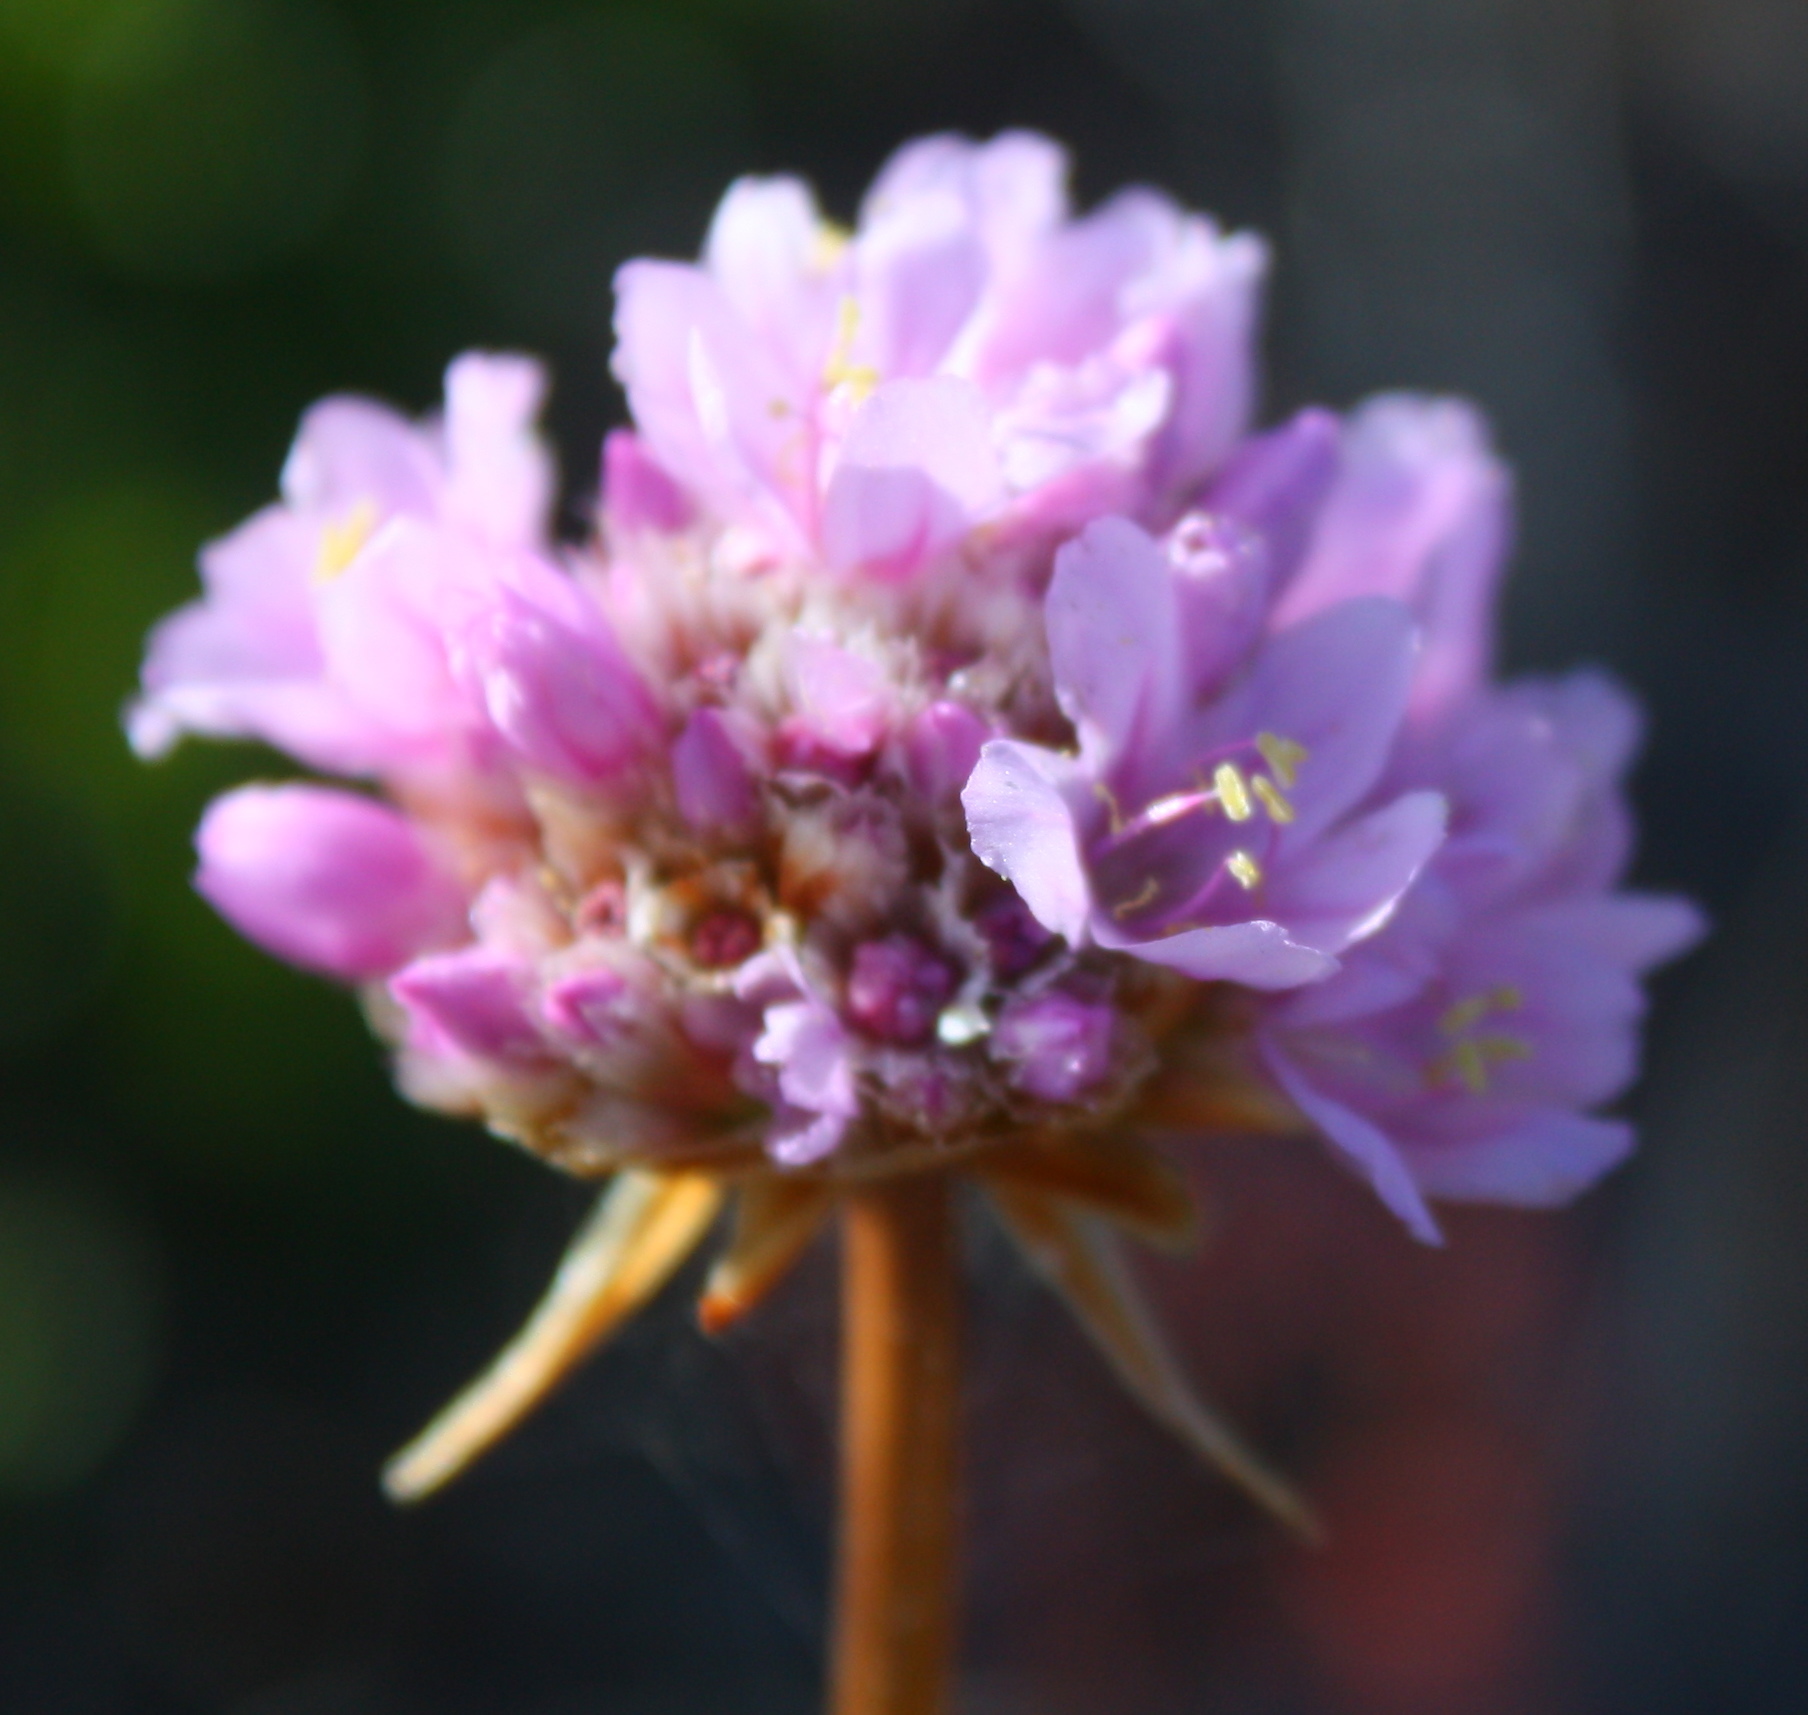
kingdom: Plantae
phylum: Tracheophyta
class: Magnoliopsida
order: Caryophyllales
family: Plumbaginaceae
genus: Armeria
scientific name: Armeria maritima
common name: Thrift
